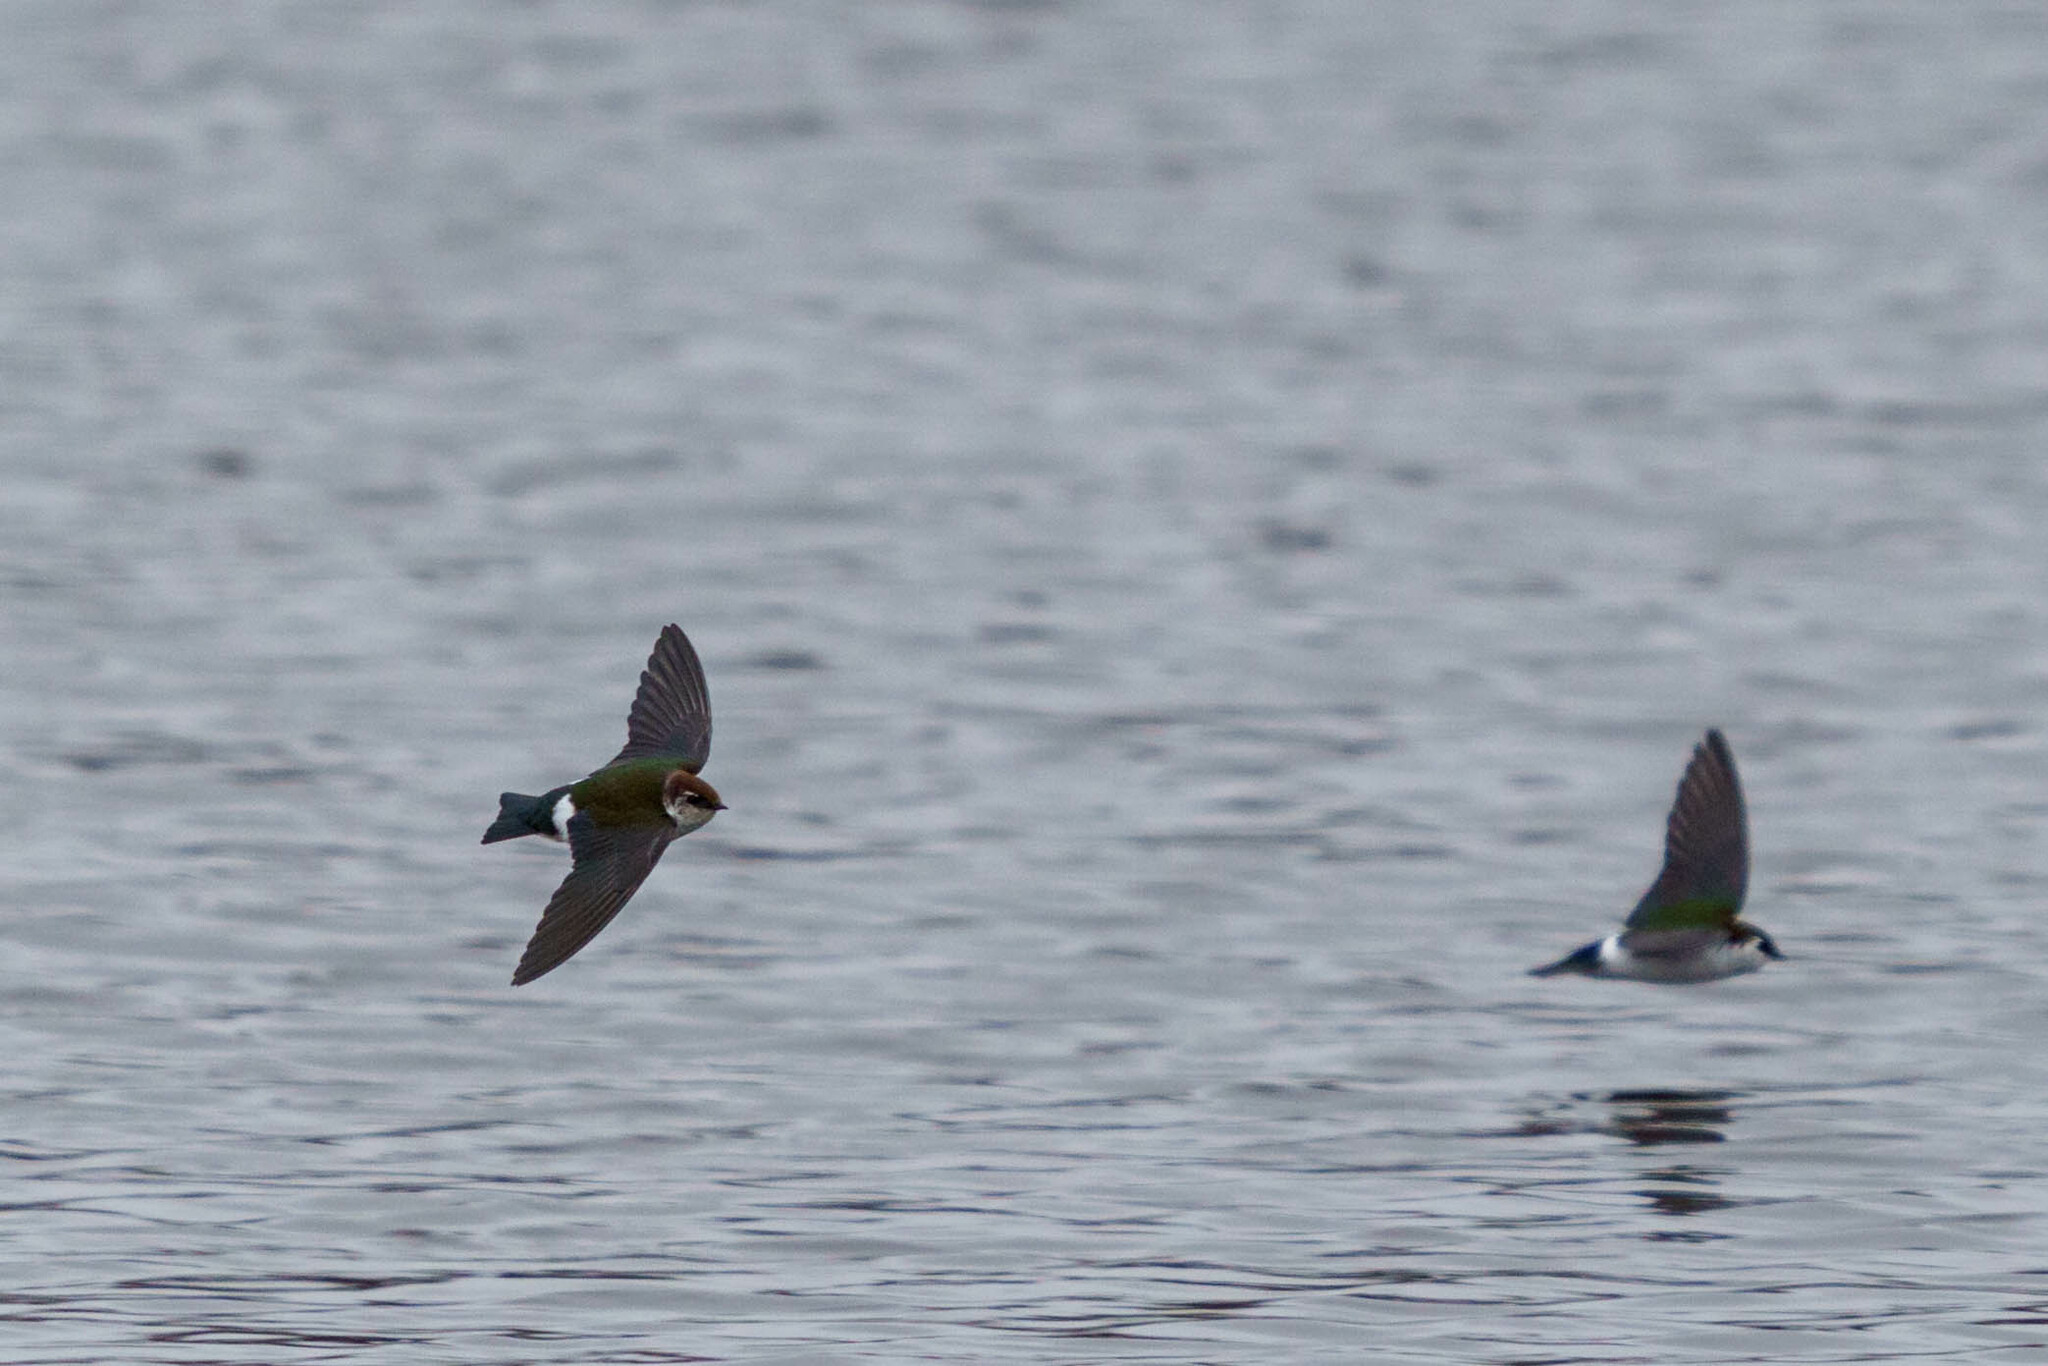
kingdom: Animalia
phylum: Chordata
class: Aves
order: Passeriformes
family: Hirundinidae
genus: Tachycineta
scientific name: Tachycineta thalassina
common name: Violet-green swallow
